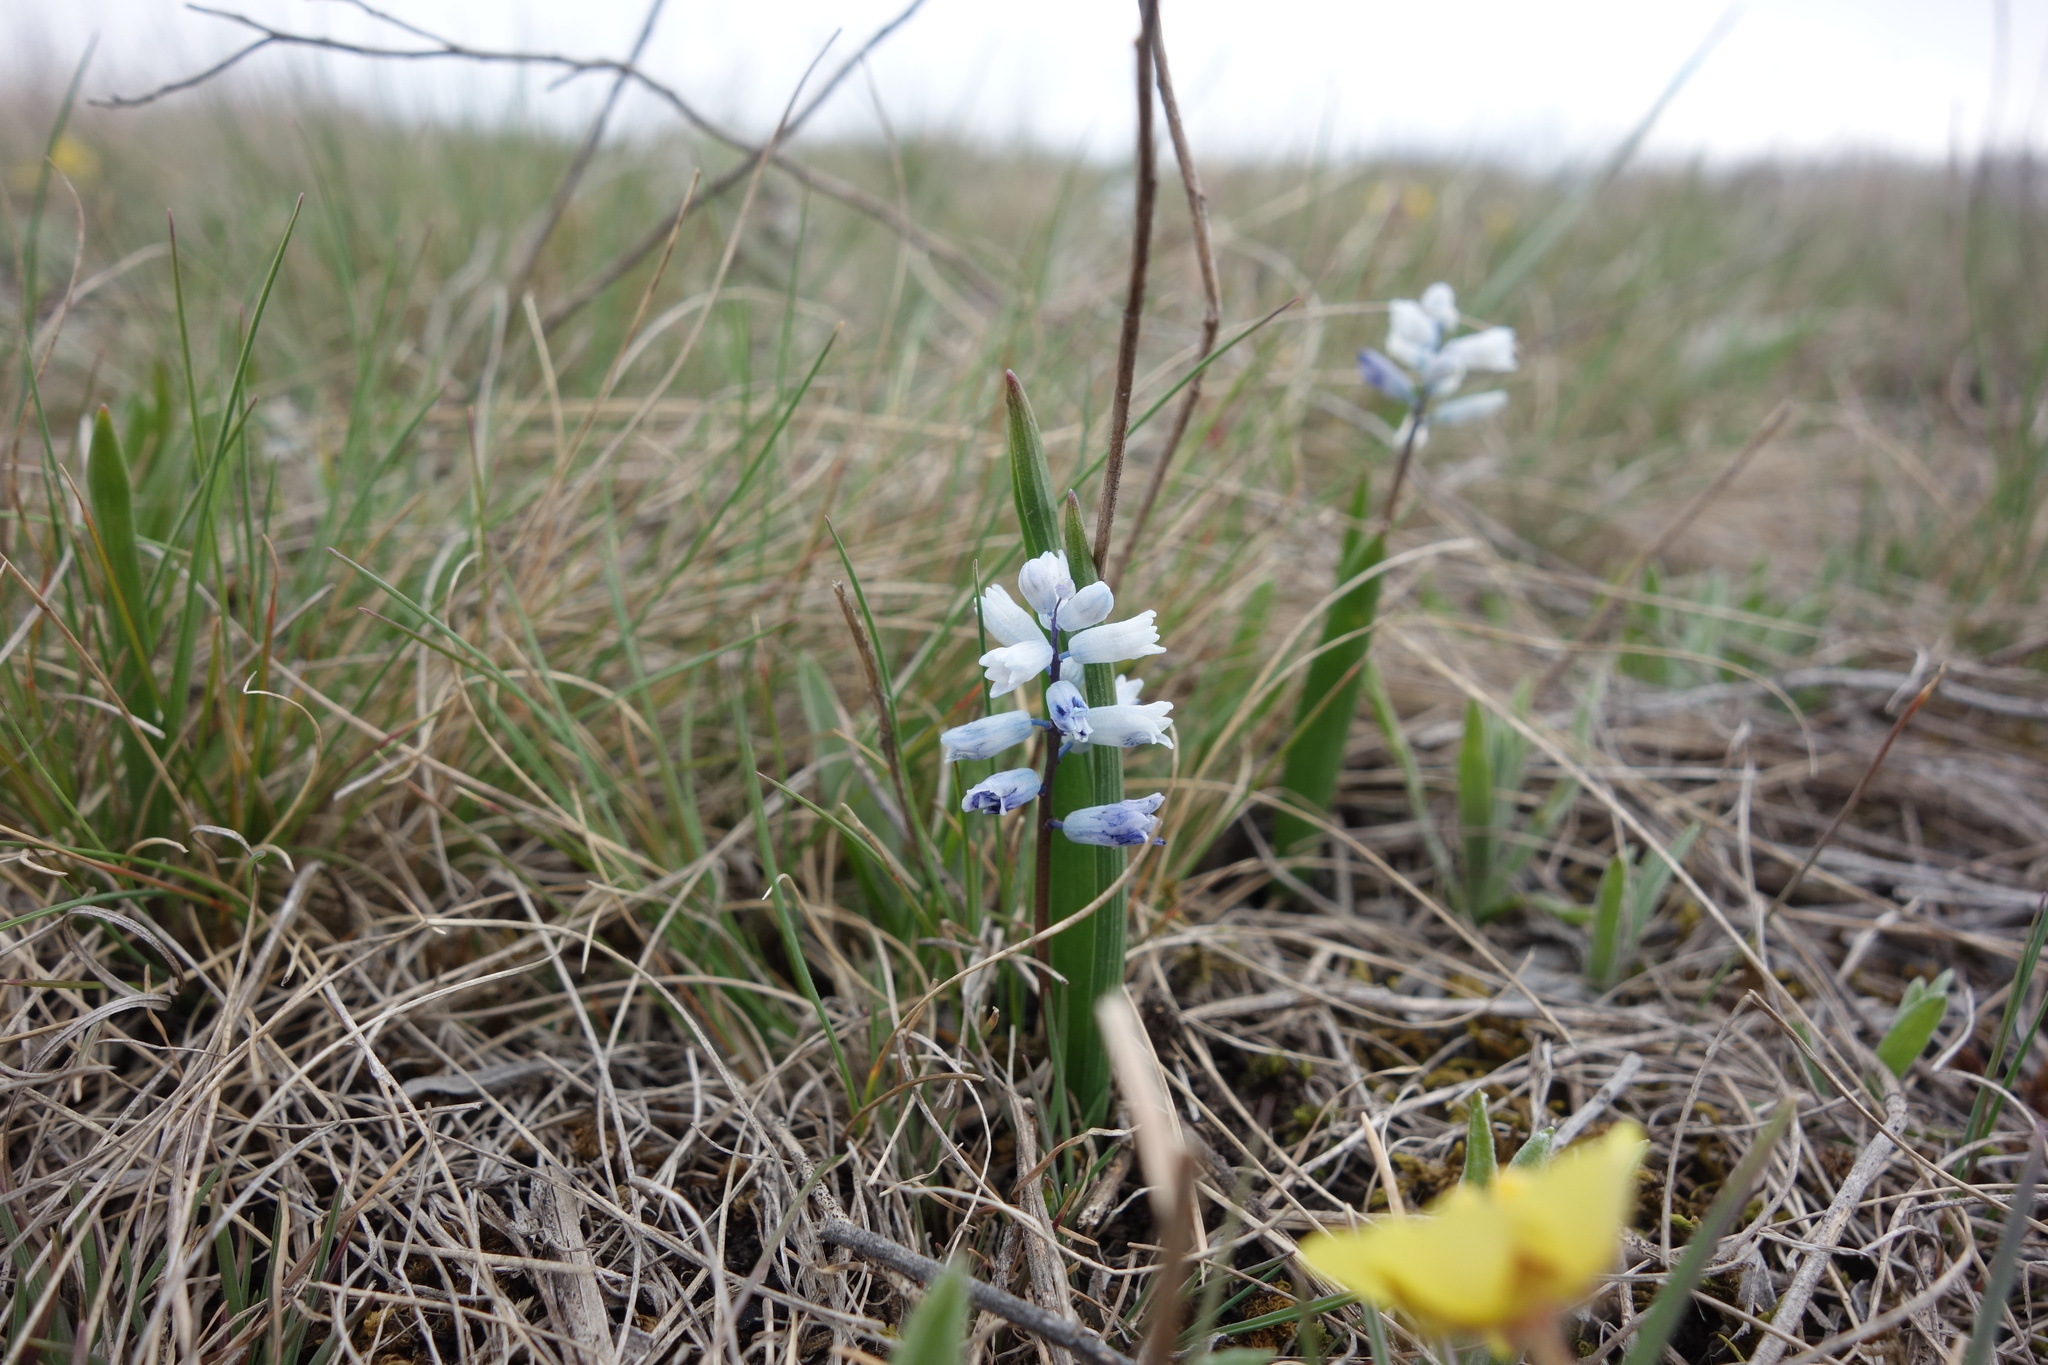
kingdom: Plantae
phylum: Tracheophyta
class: Liliopsida
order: Asparagales
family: Asparagaceae
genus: Hyacinthella
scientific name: Hyacinthella leucophaea
